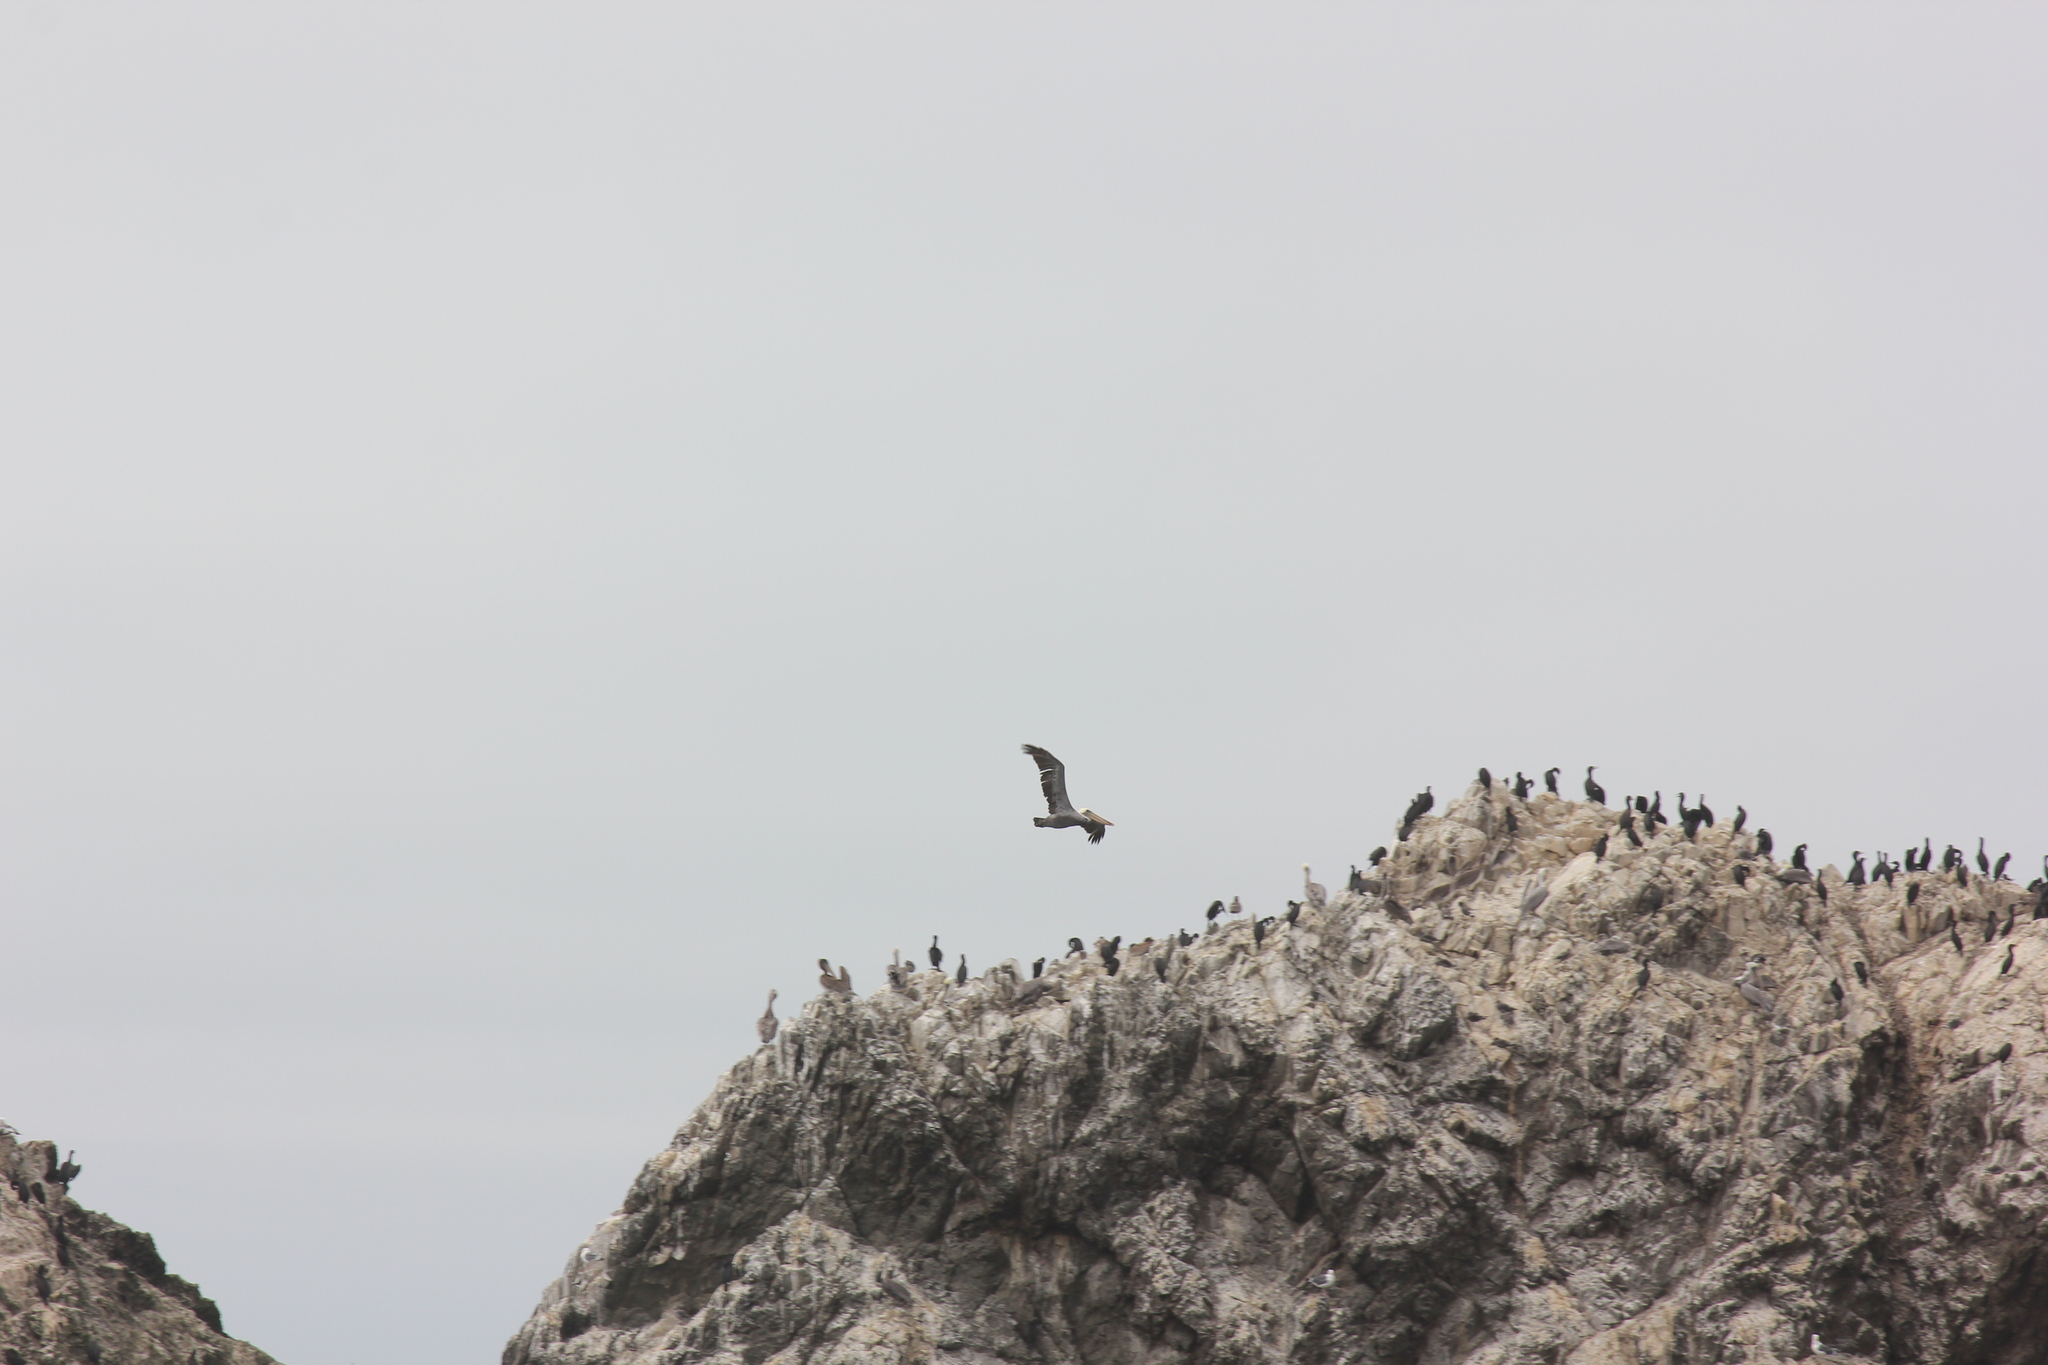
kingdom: Animalia
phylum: Chordata
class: Aves
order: Pelecaniformes
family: Pelecanidae
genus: Pelecanus
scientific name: Pelecanus occidentalis
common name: Brown pelican
